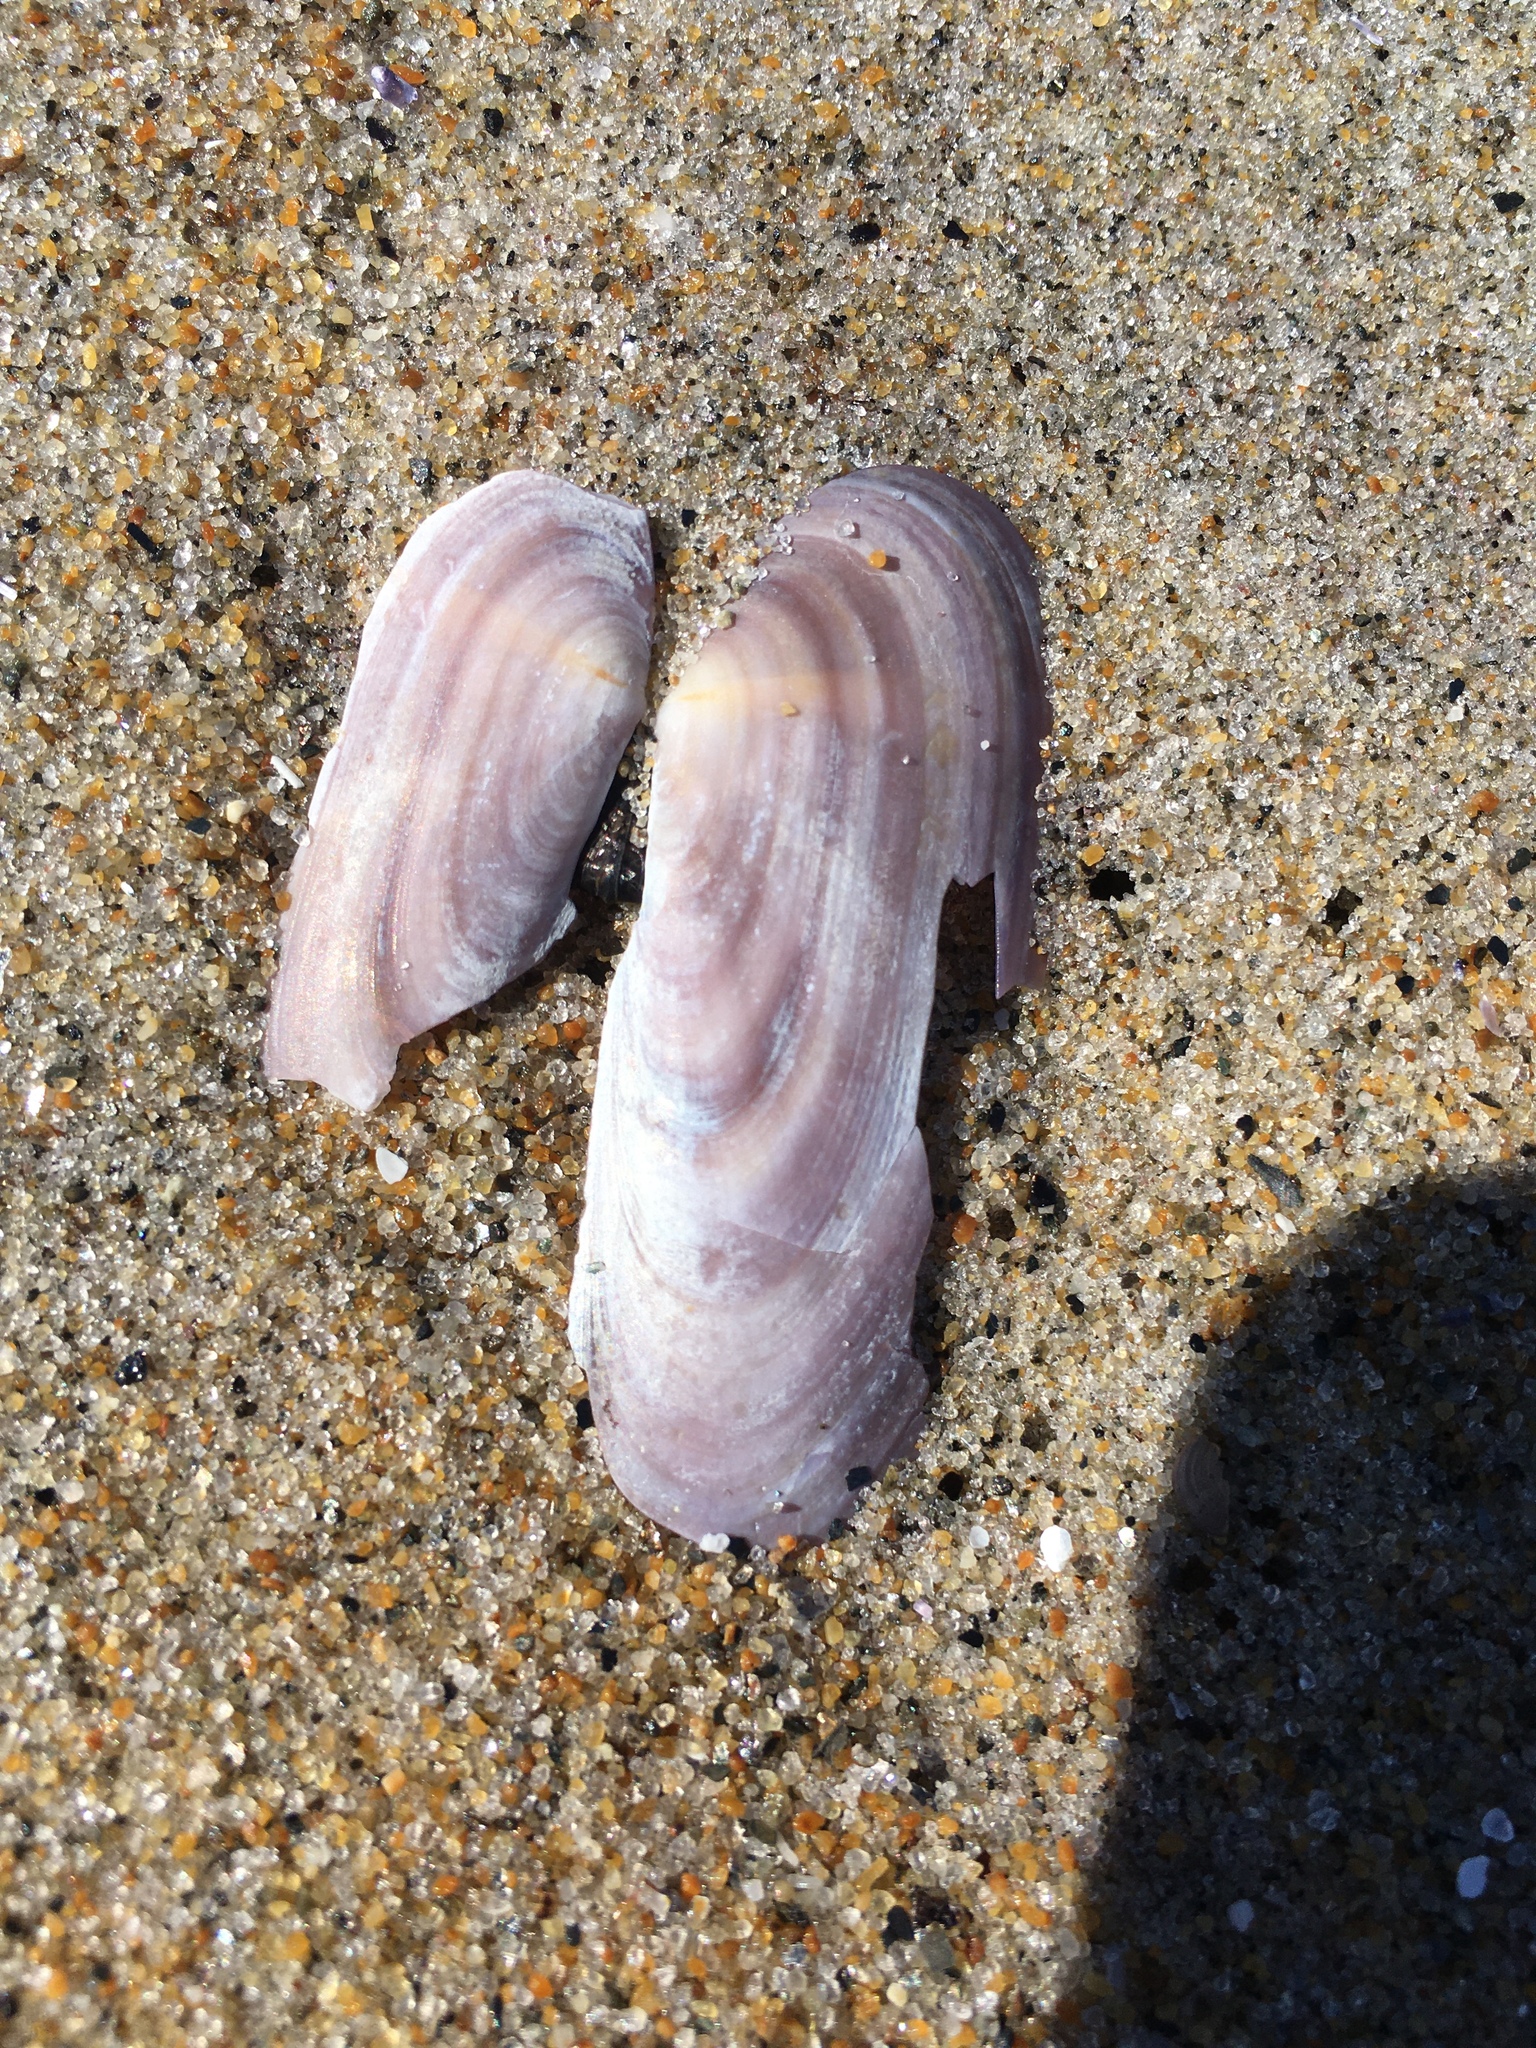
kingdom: Animalia
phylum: Mollusca
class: Bivalvia
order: Adapedonta
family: Pharidae
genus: Siliqua
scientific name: Siliqua costata
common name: Atlantic razor
